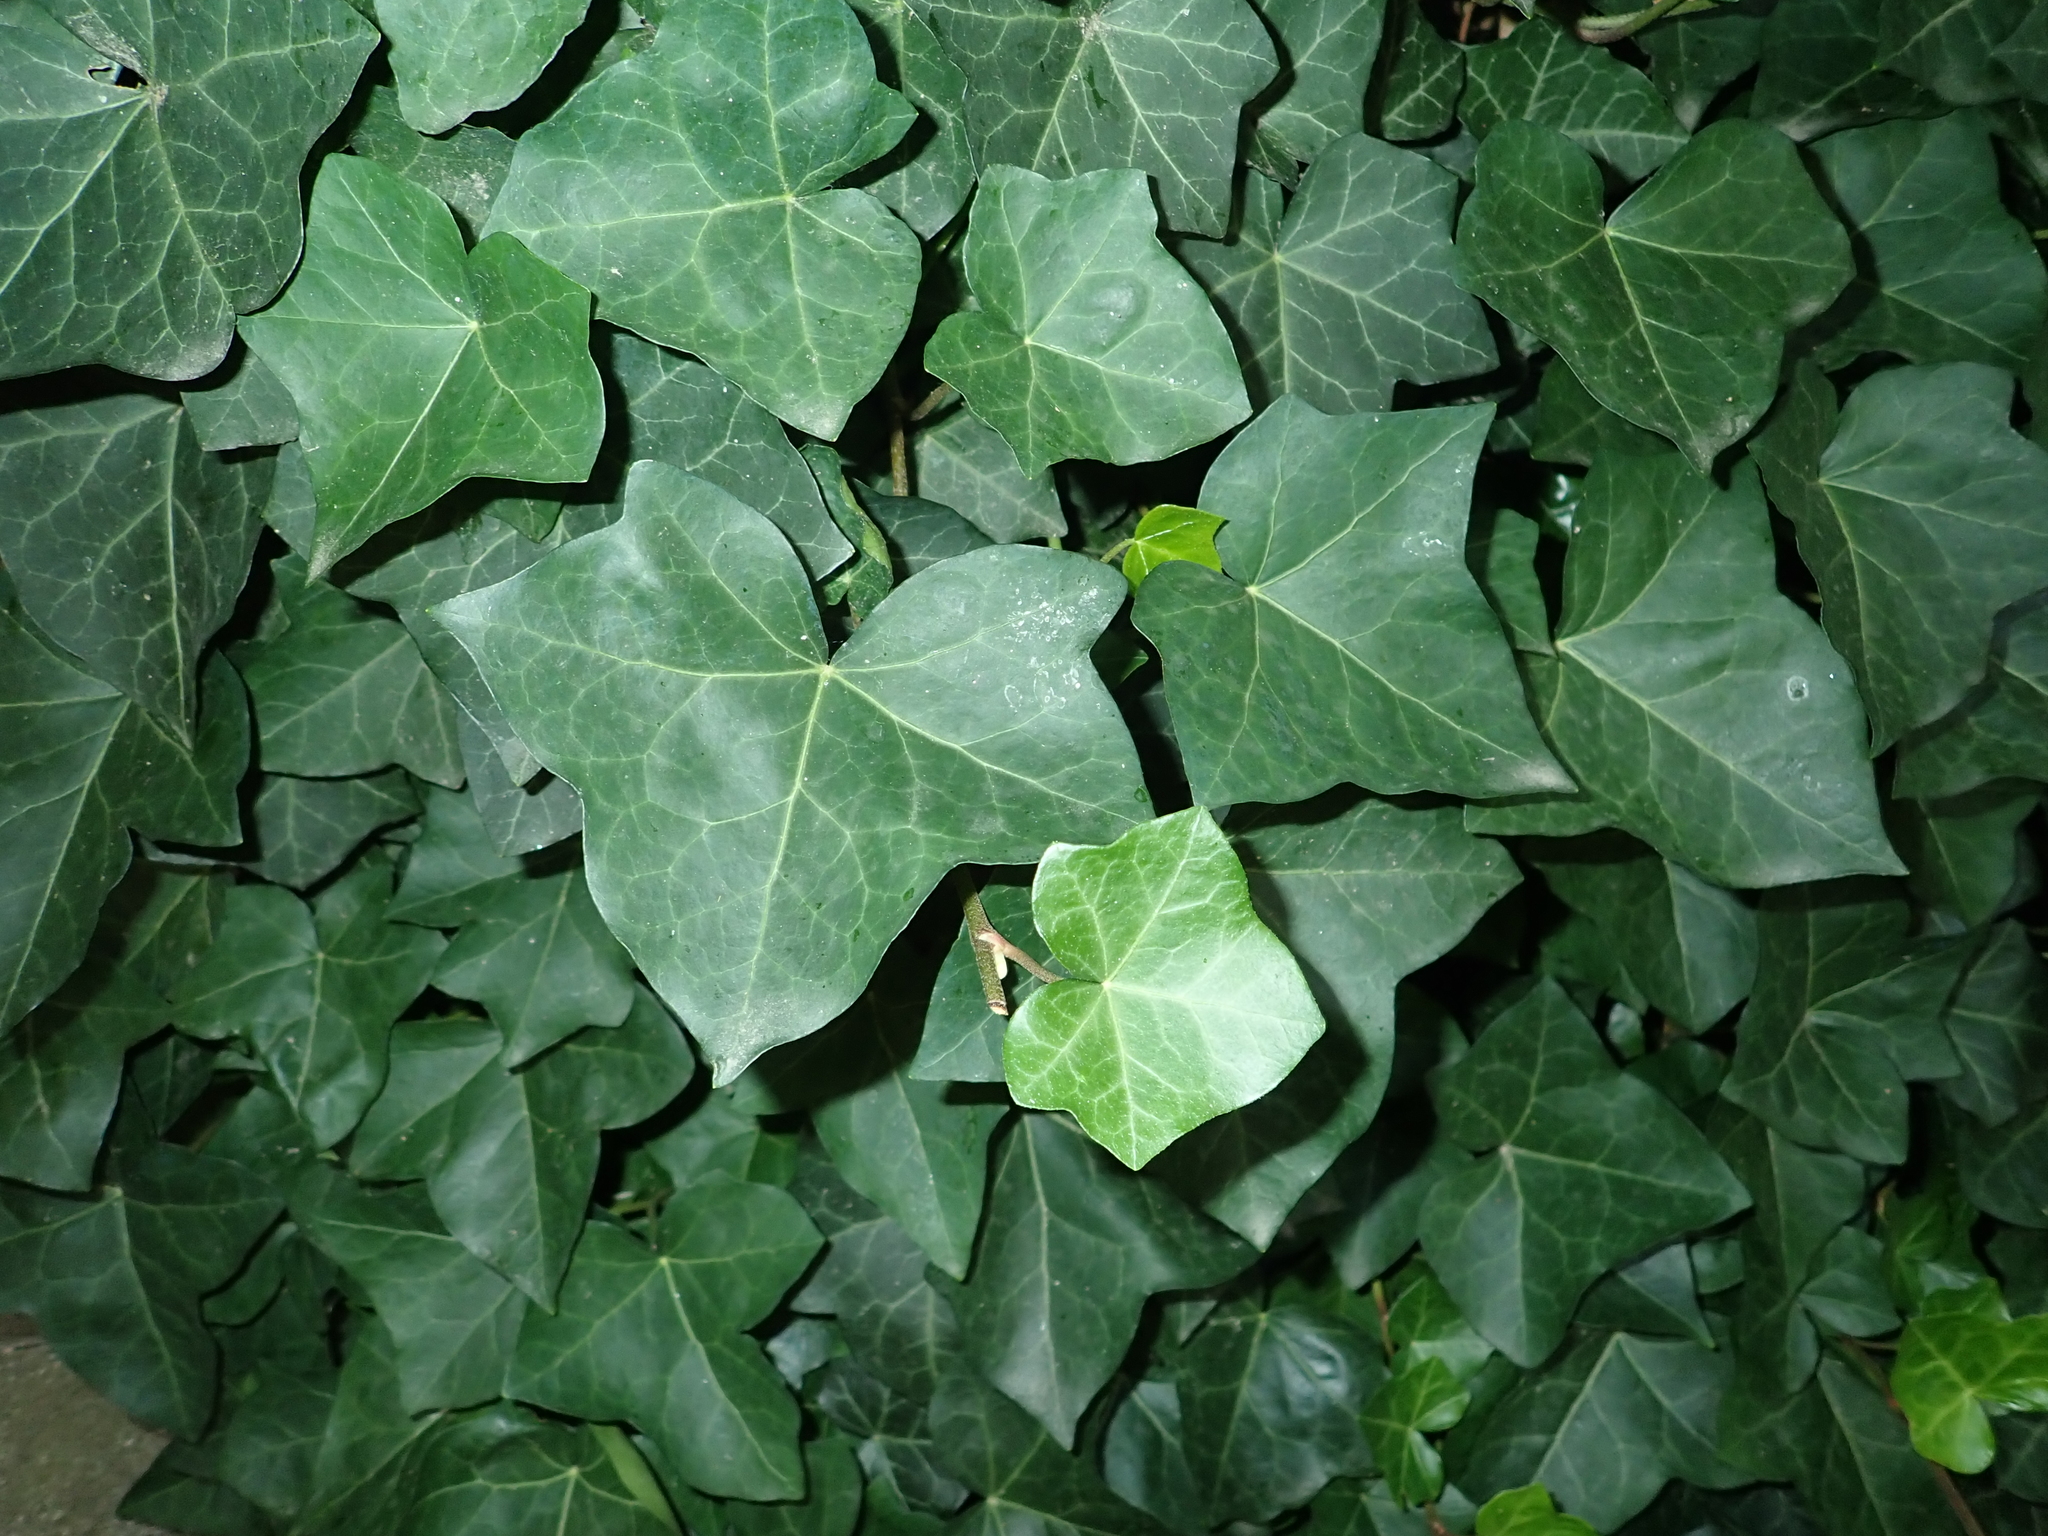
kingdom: Plantae
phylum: Tracheophyta
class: Magnoliopsida
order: Apiales
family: Araliaceae
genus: Hedera
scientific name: Hedera helix
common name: Ivy
